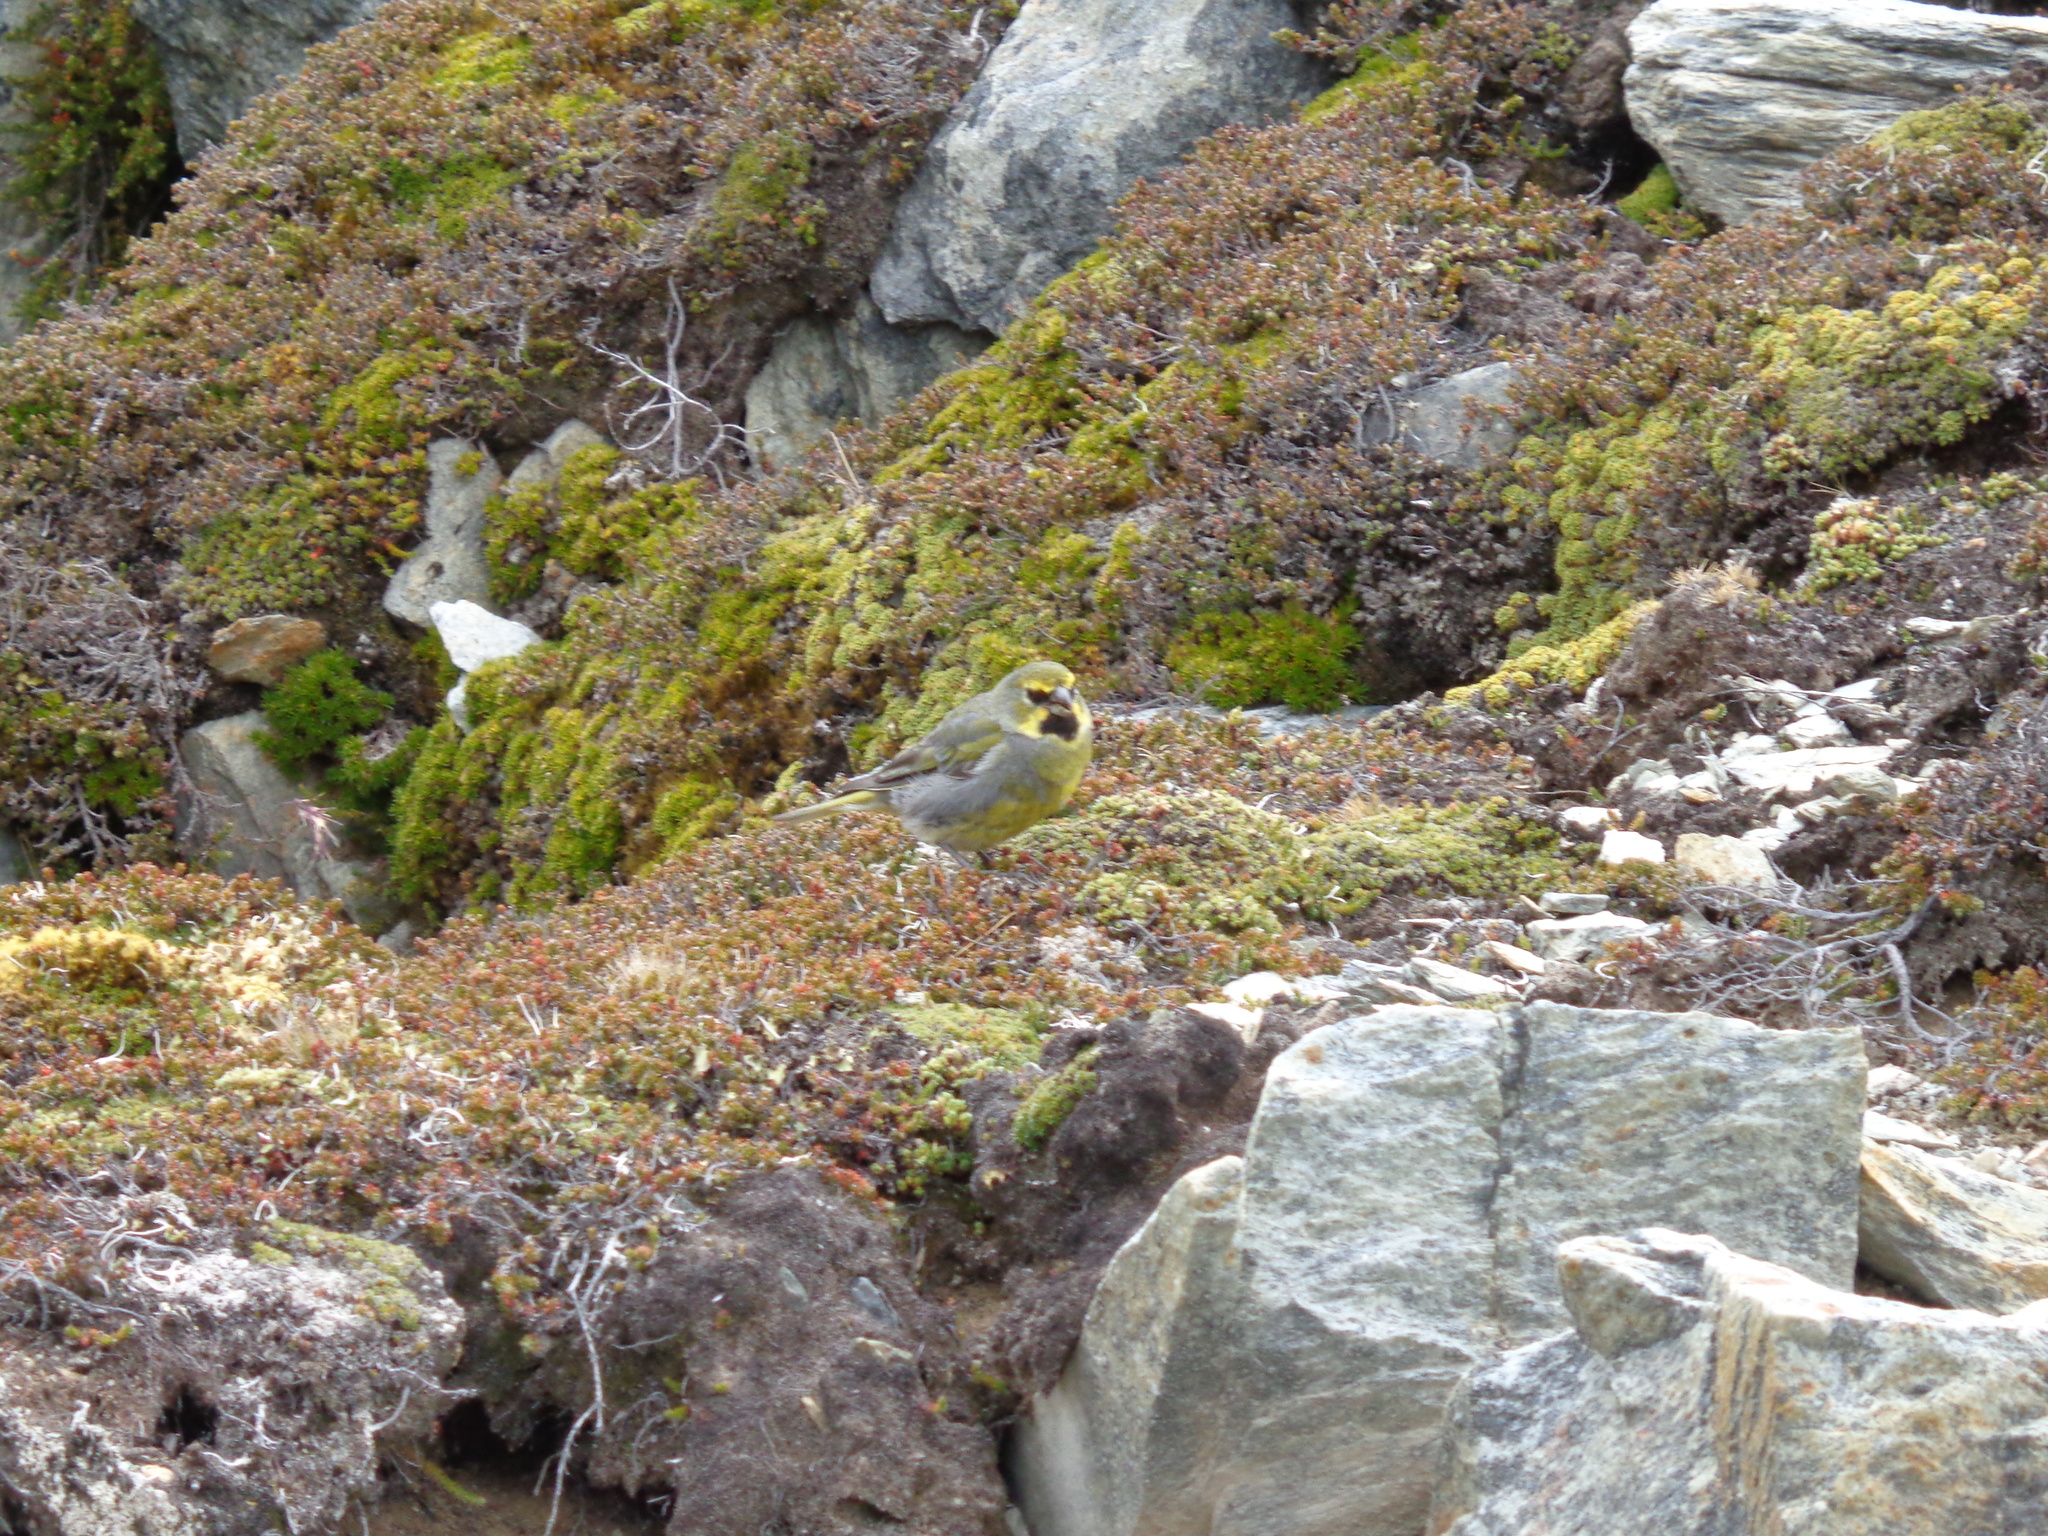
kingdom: Animalia
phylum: Chordata
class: Aves
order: Passeriformes
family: Thraupidae
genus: Melanodera
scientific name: Melanodera xanthogramma
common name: Yellow-bridled finch
